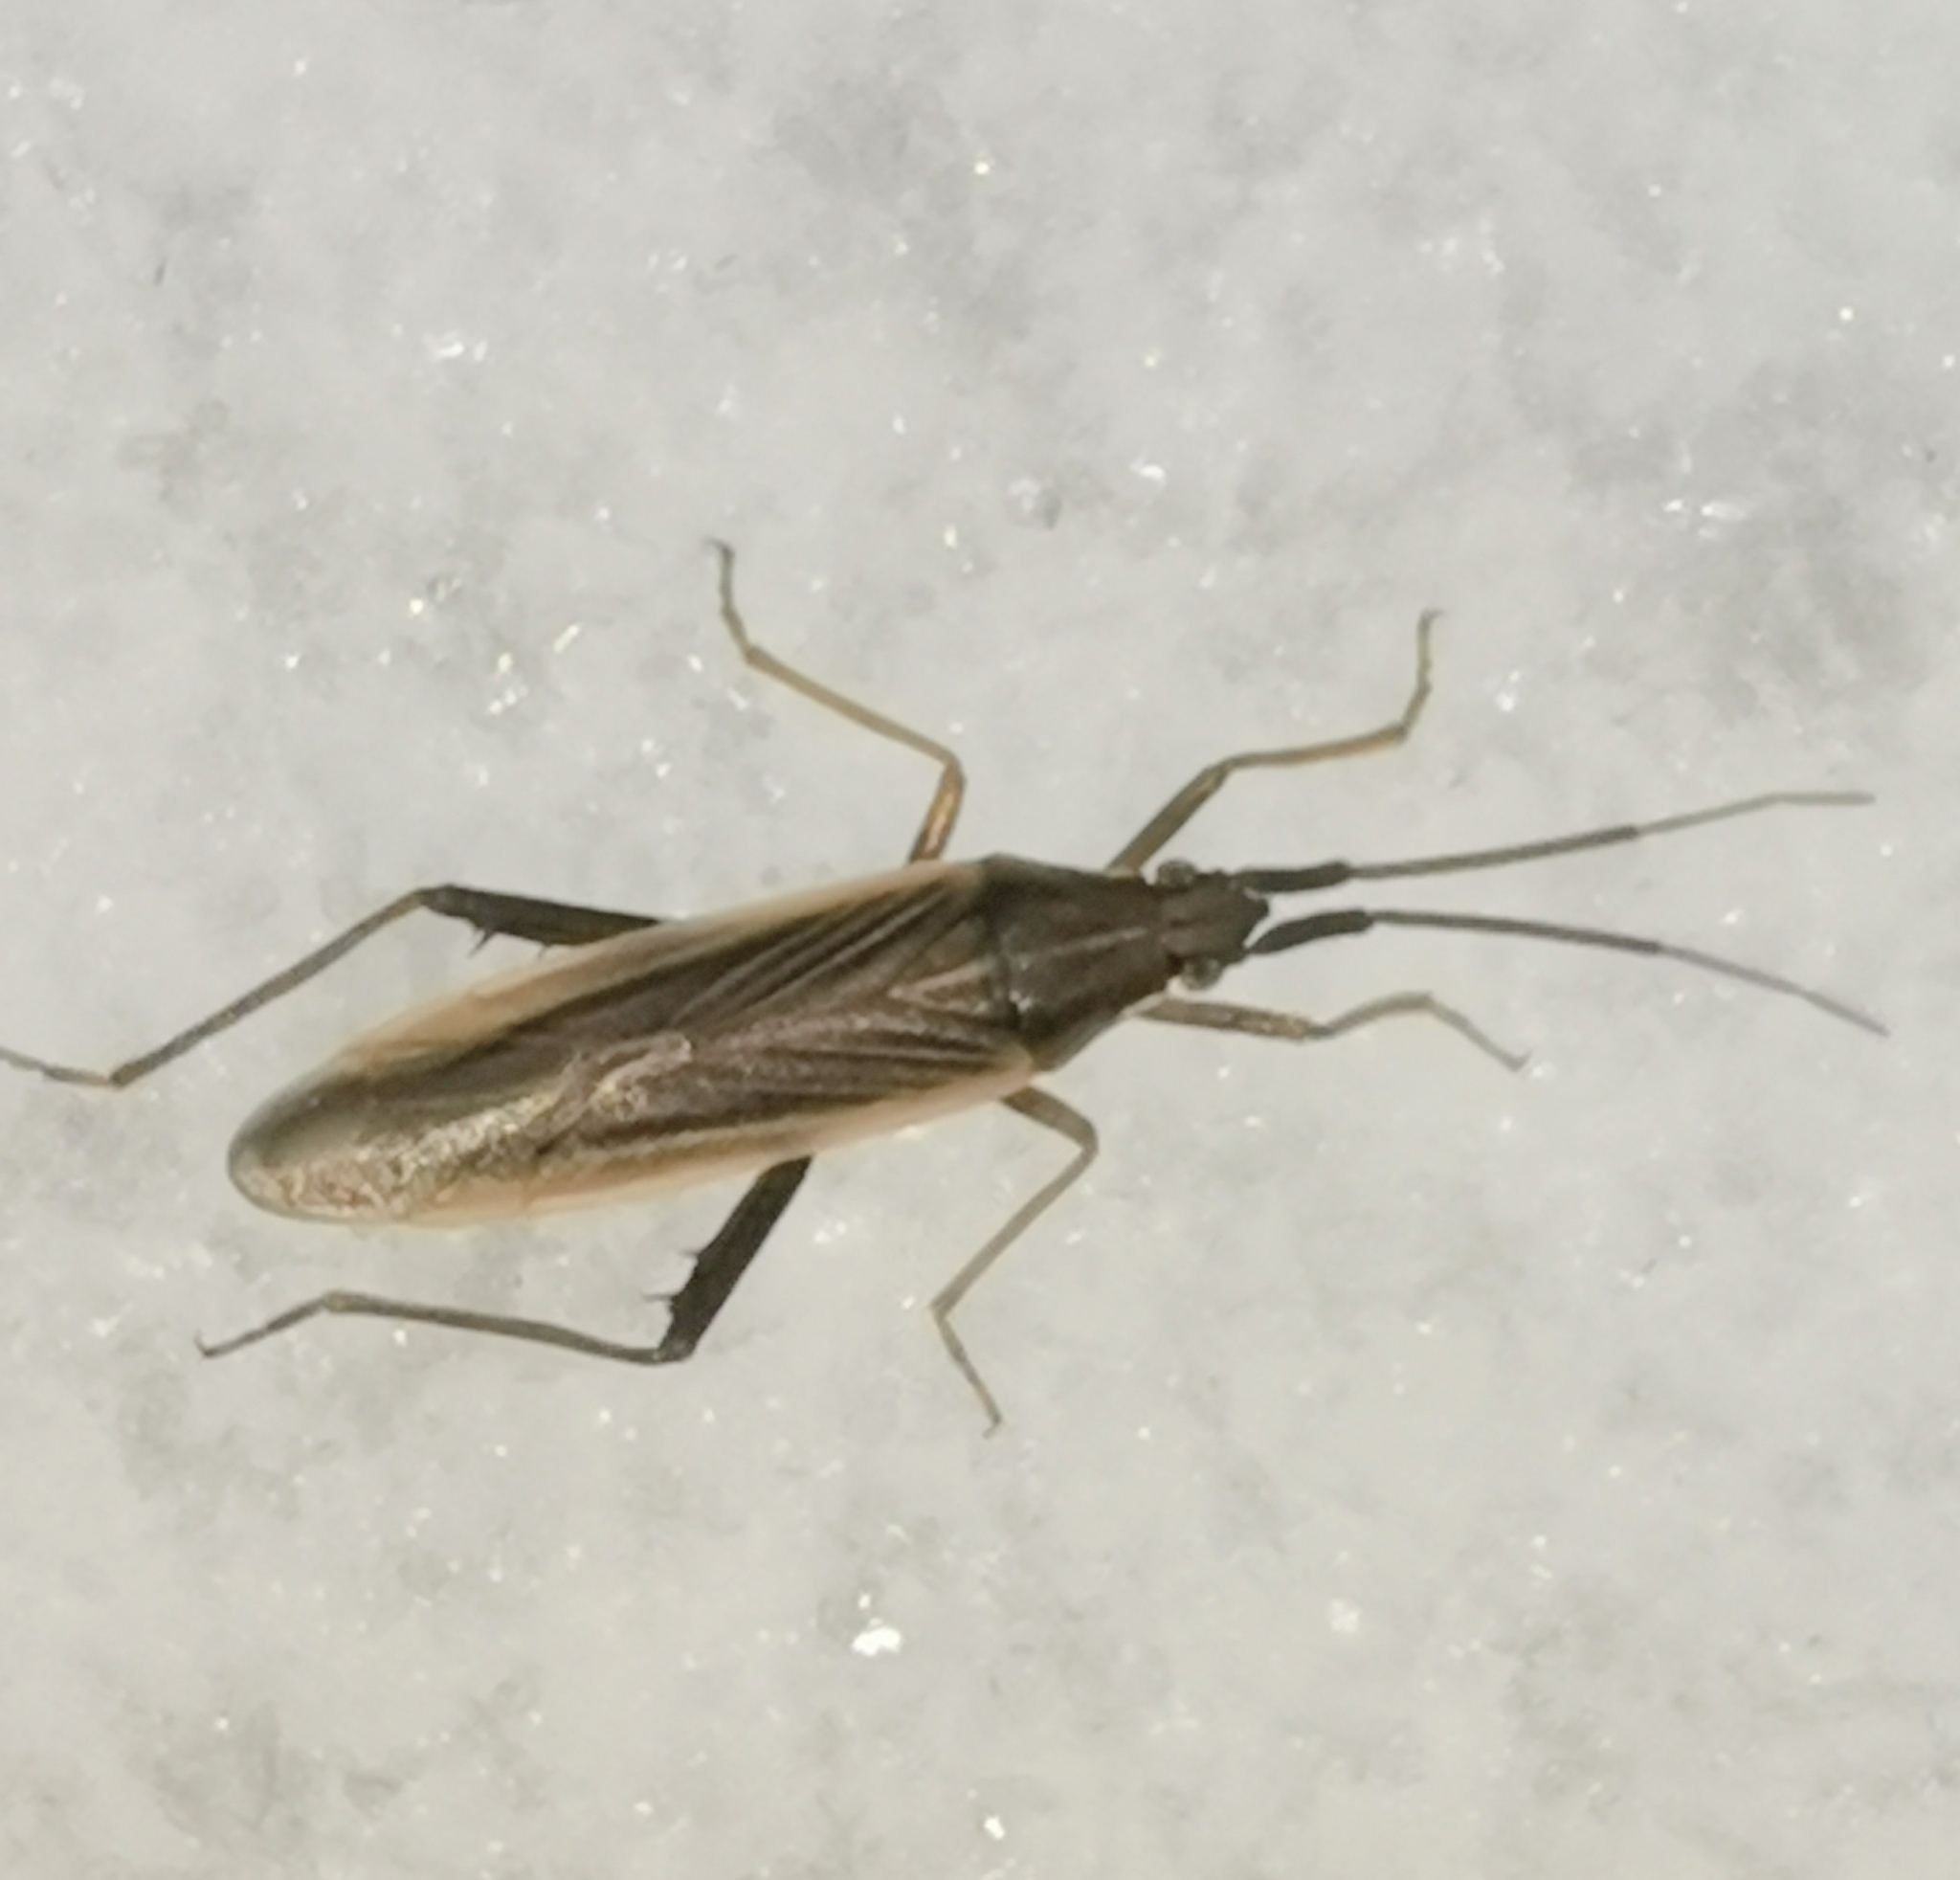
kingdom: Animalia
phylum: Arthropoda
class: Insecta
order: Hemiptera
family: Miridae
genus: Stenodema
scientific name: Stenodema trispinosa
